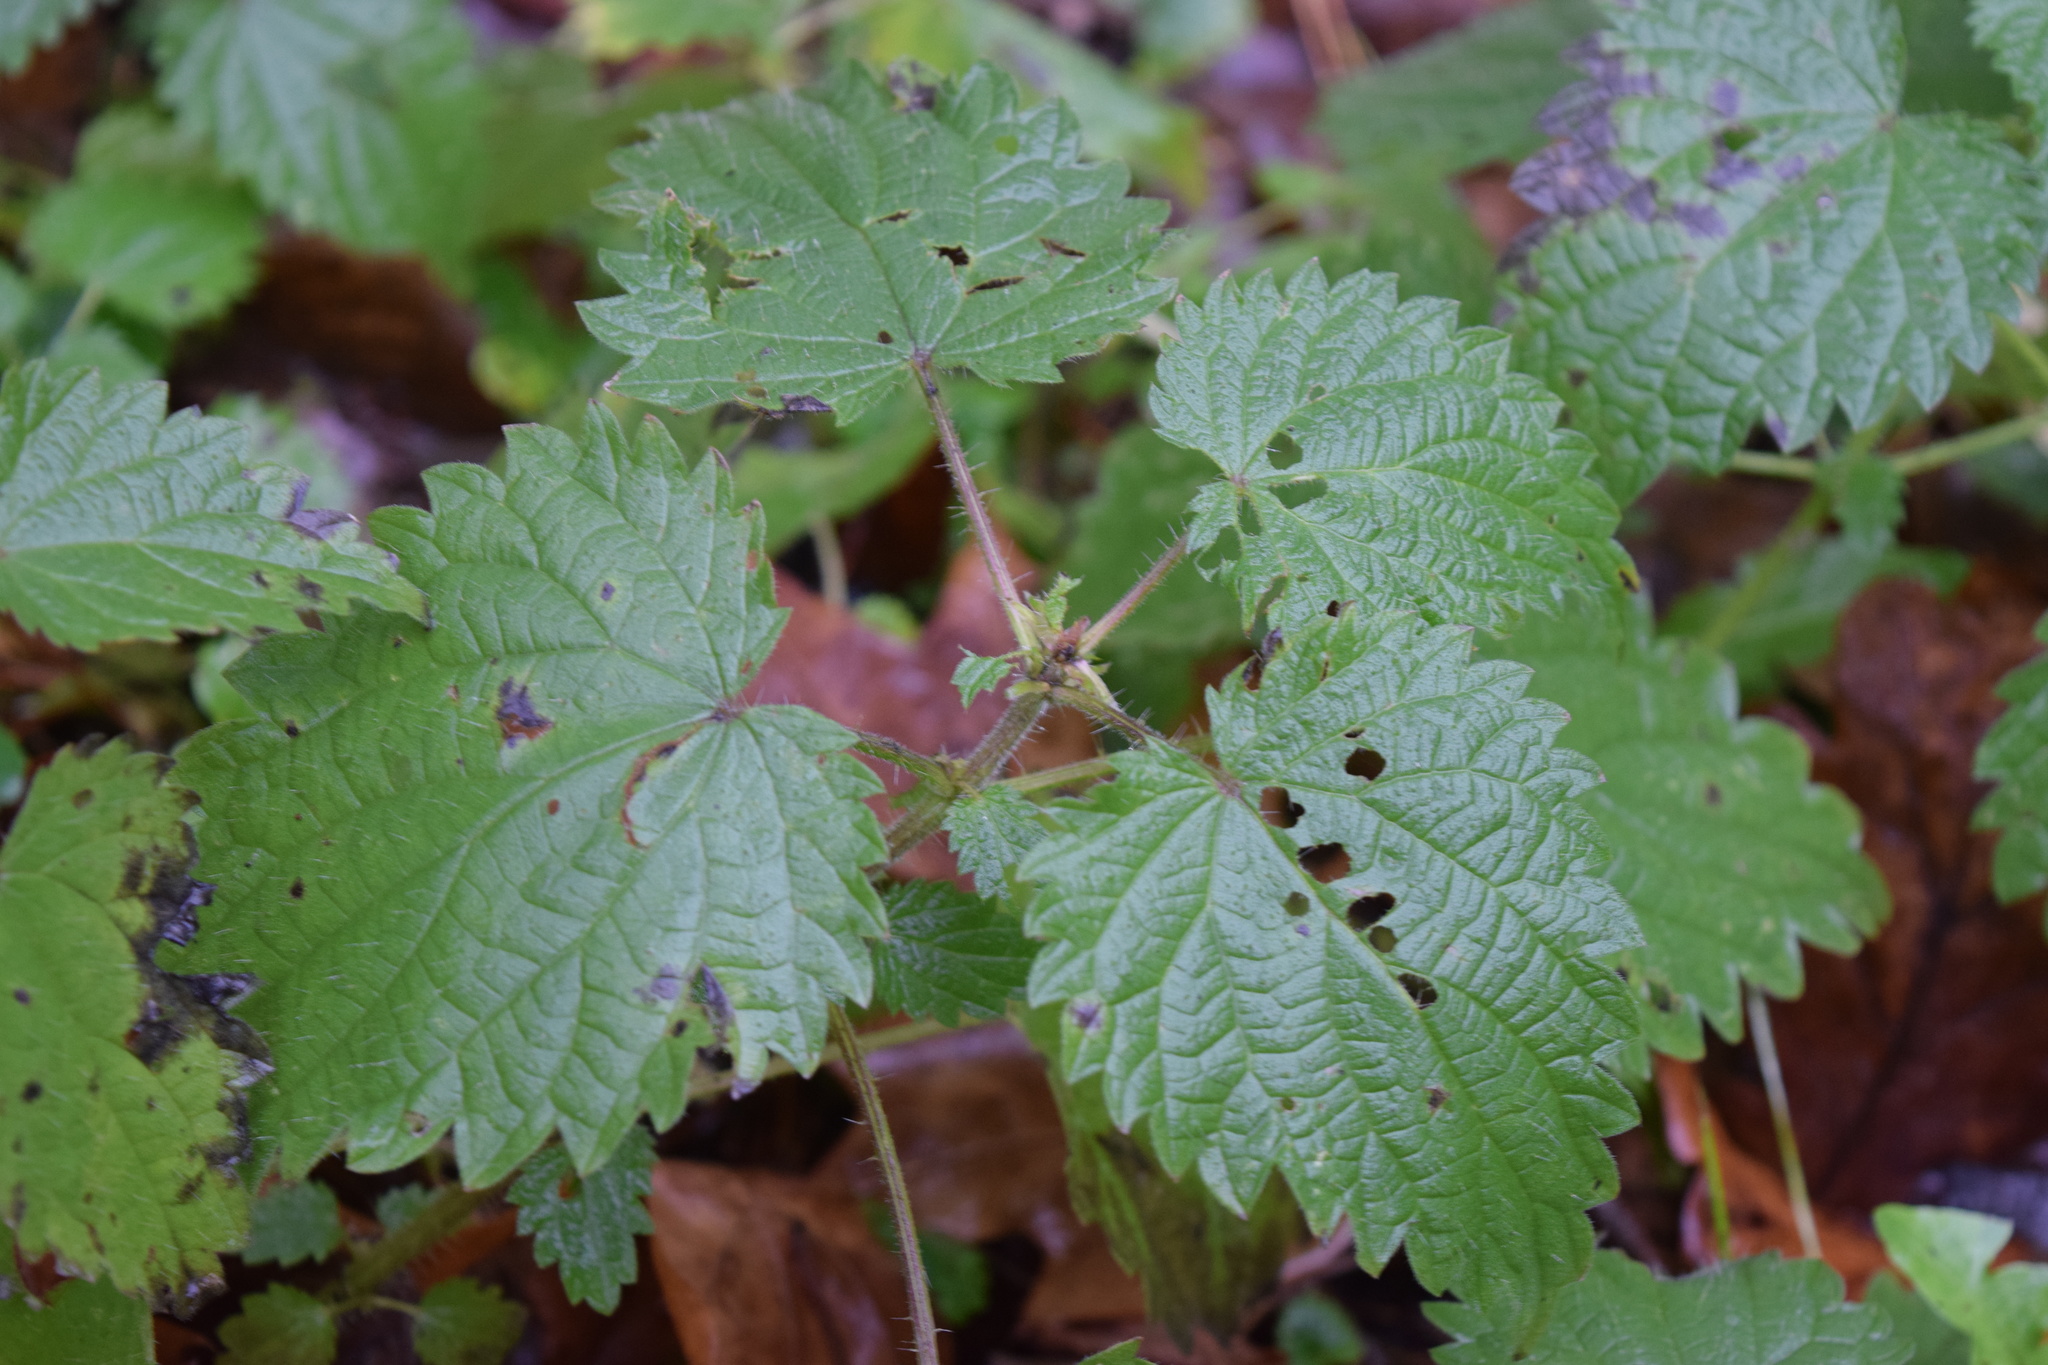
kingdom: Plantae
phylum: Tracheophyta
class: Magnoliopsida
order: Rosales
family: Urticaceae
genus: Urtica
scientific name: Urtica dioica
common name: Common nettle
